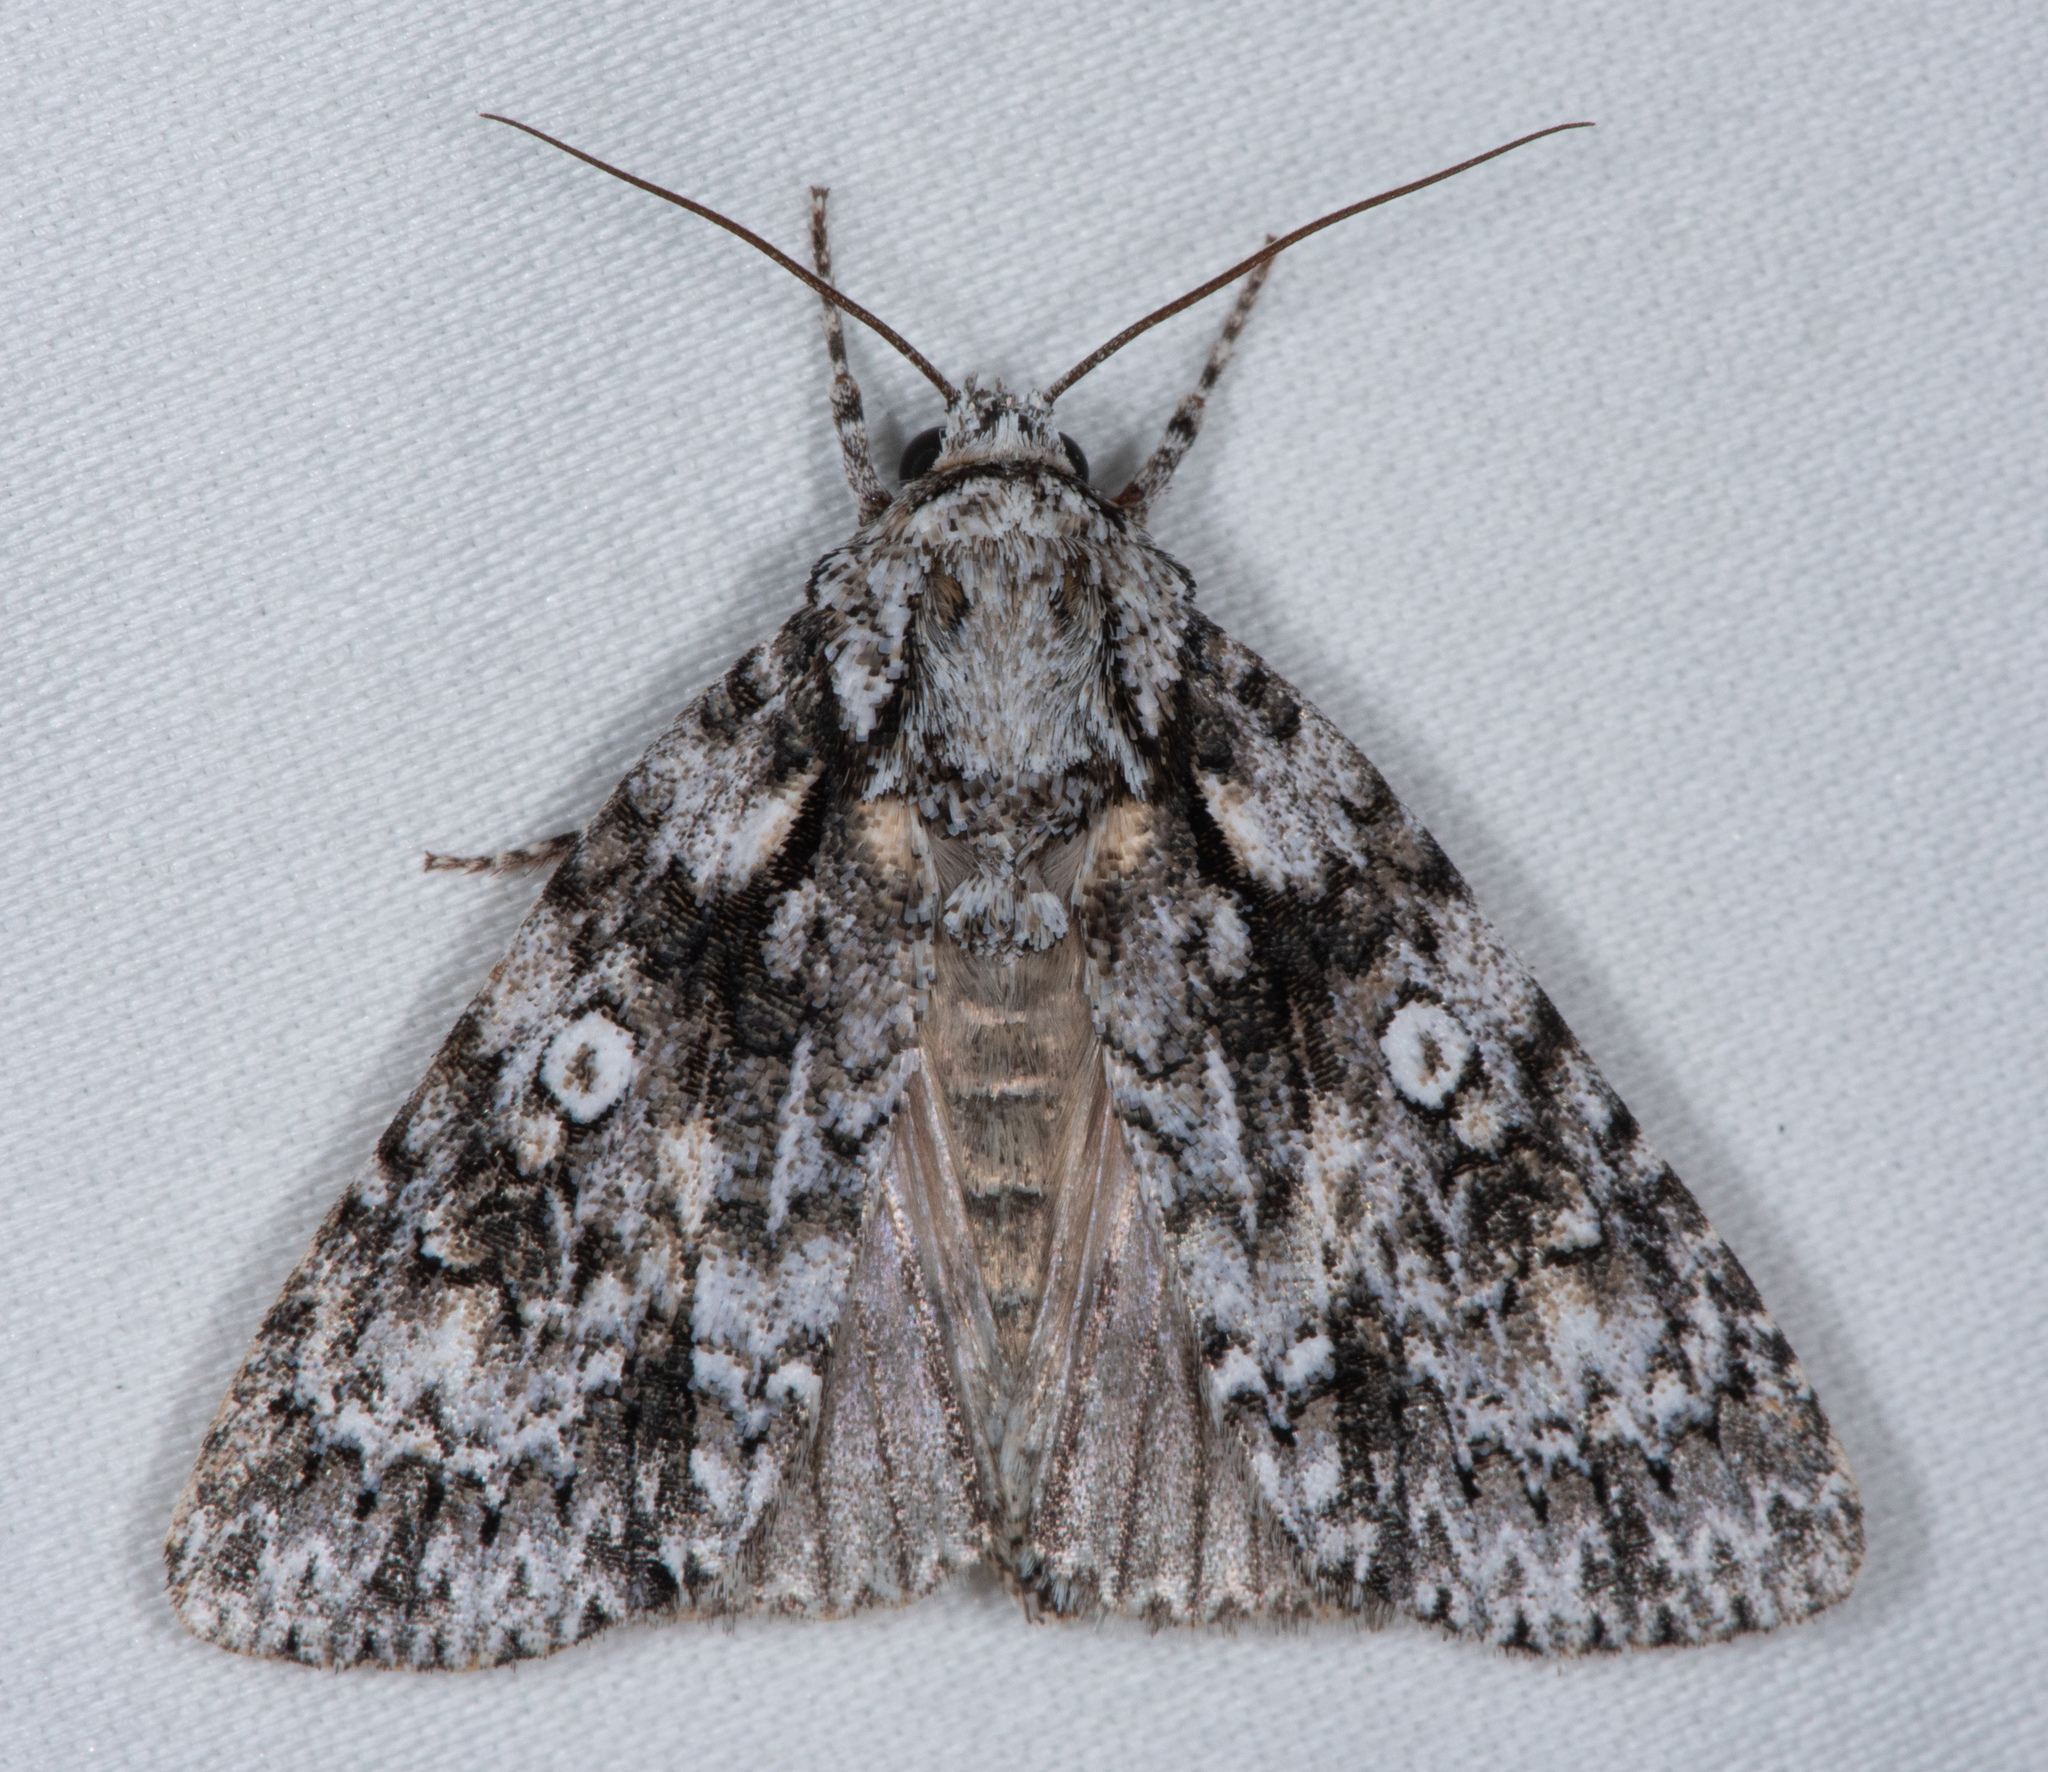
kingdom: Animalia
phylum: Arthropoda
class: Insecta
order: Lepidoptera
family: Noctuidae
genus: Acronicta
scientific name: Acronicta marmorata
